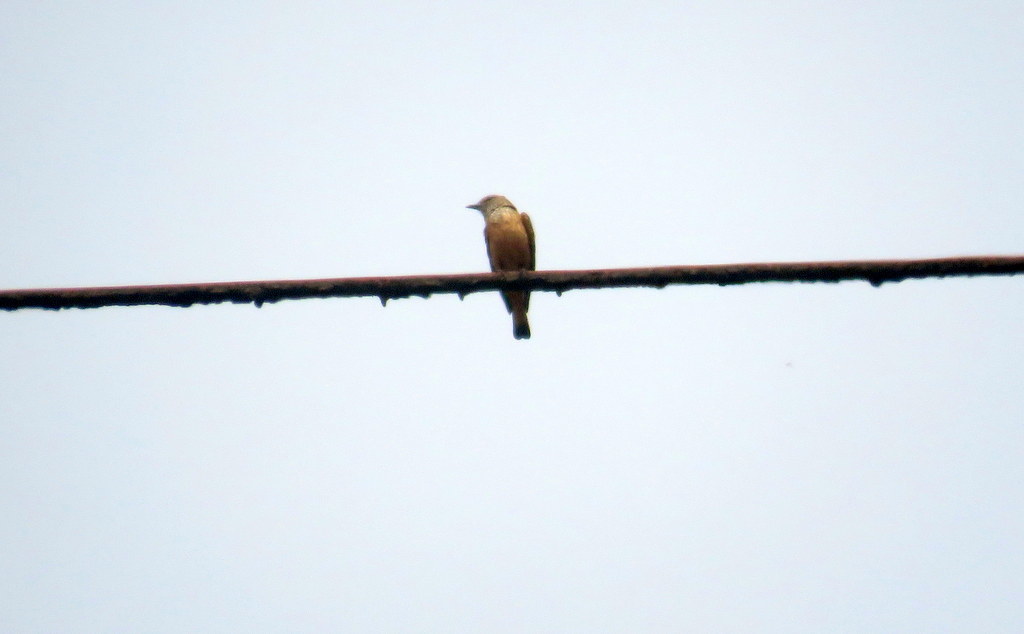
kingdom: Animalia
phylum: Chordata
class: Aves
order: Passeriformes
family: Tyrannidae
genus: Myiotheretes
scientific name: Myiotheretes striaticollis
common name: Streak-throated bush tyrant
